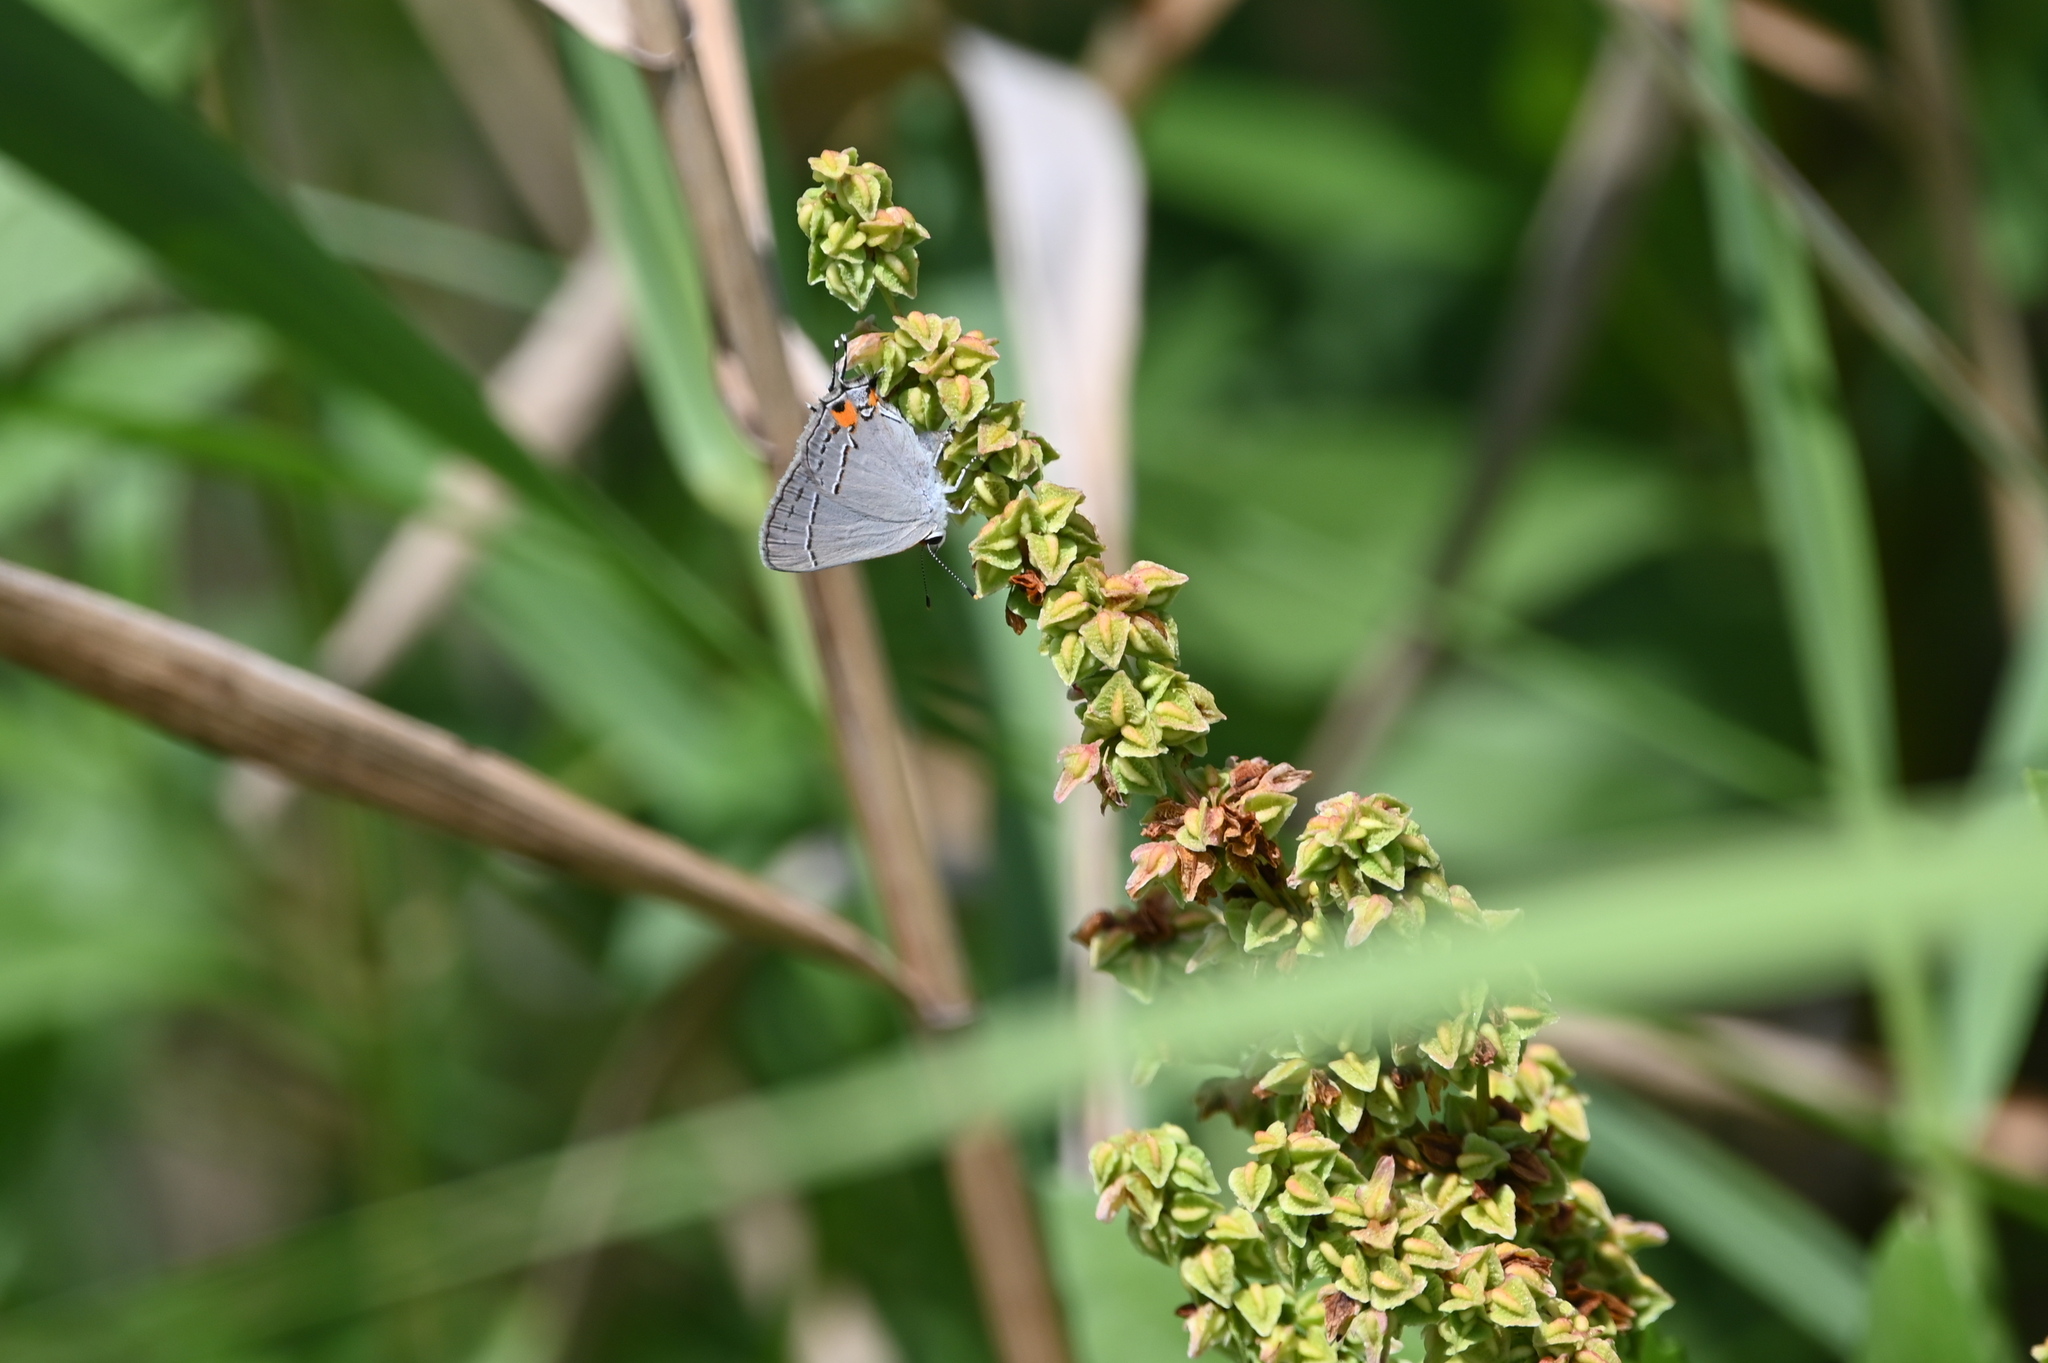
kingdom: Animalia
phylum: Arthropoda
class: Insecta
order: Lepidoptera
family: Lycaenidae
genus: Strymon
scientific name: Strymon melinus
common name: Gray hairstreak
